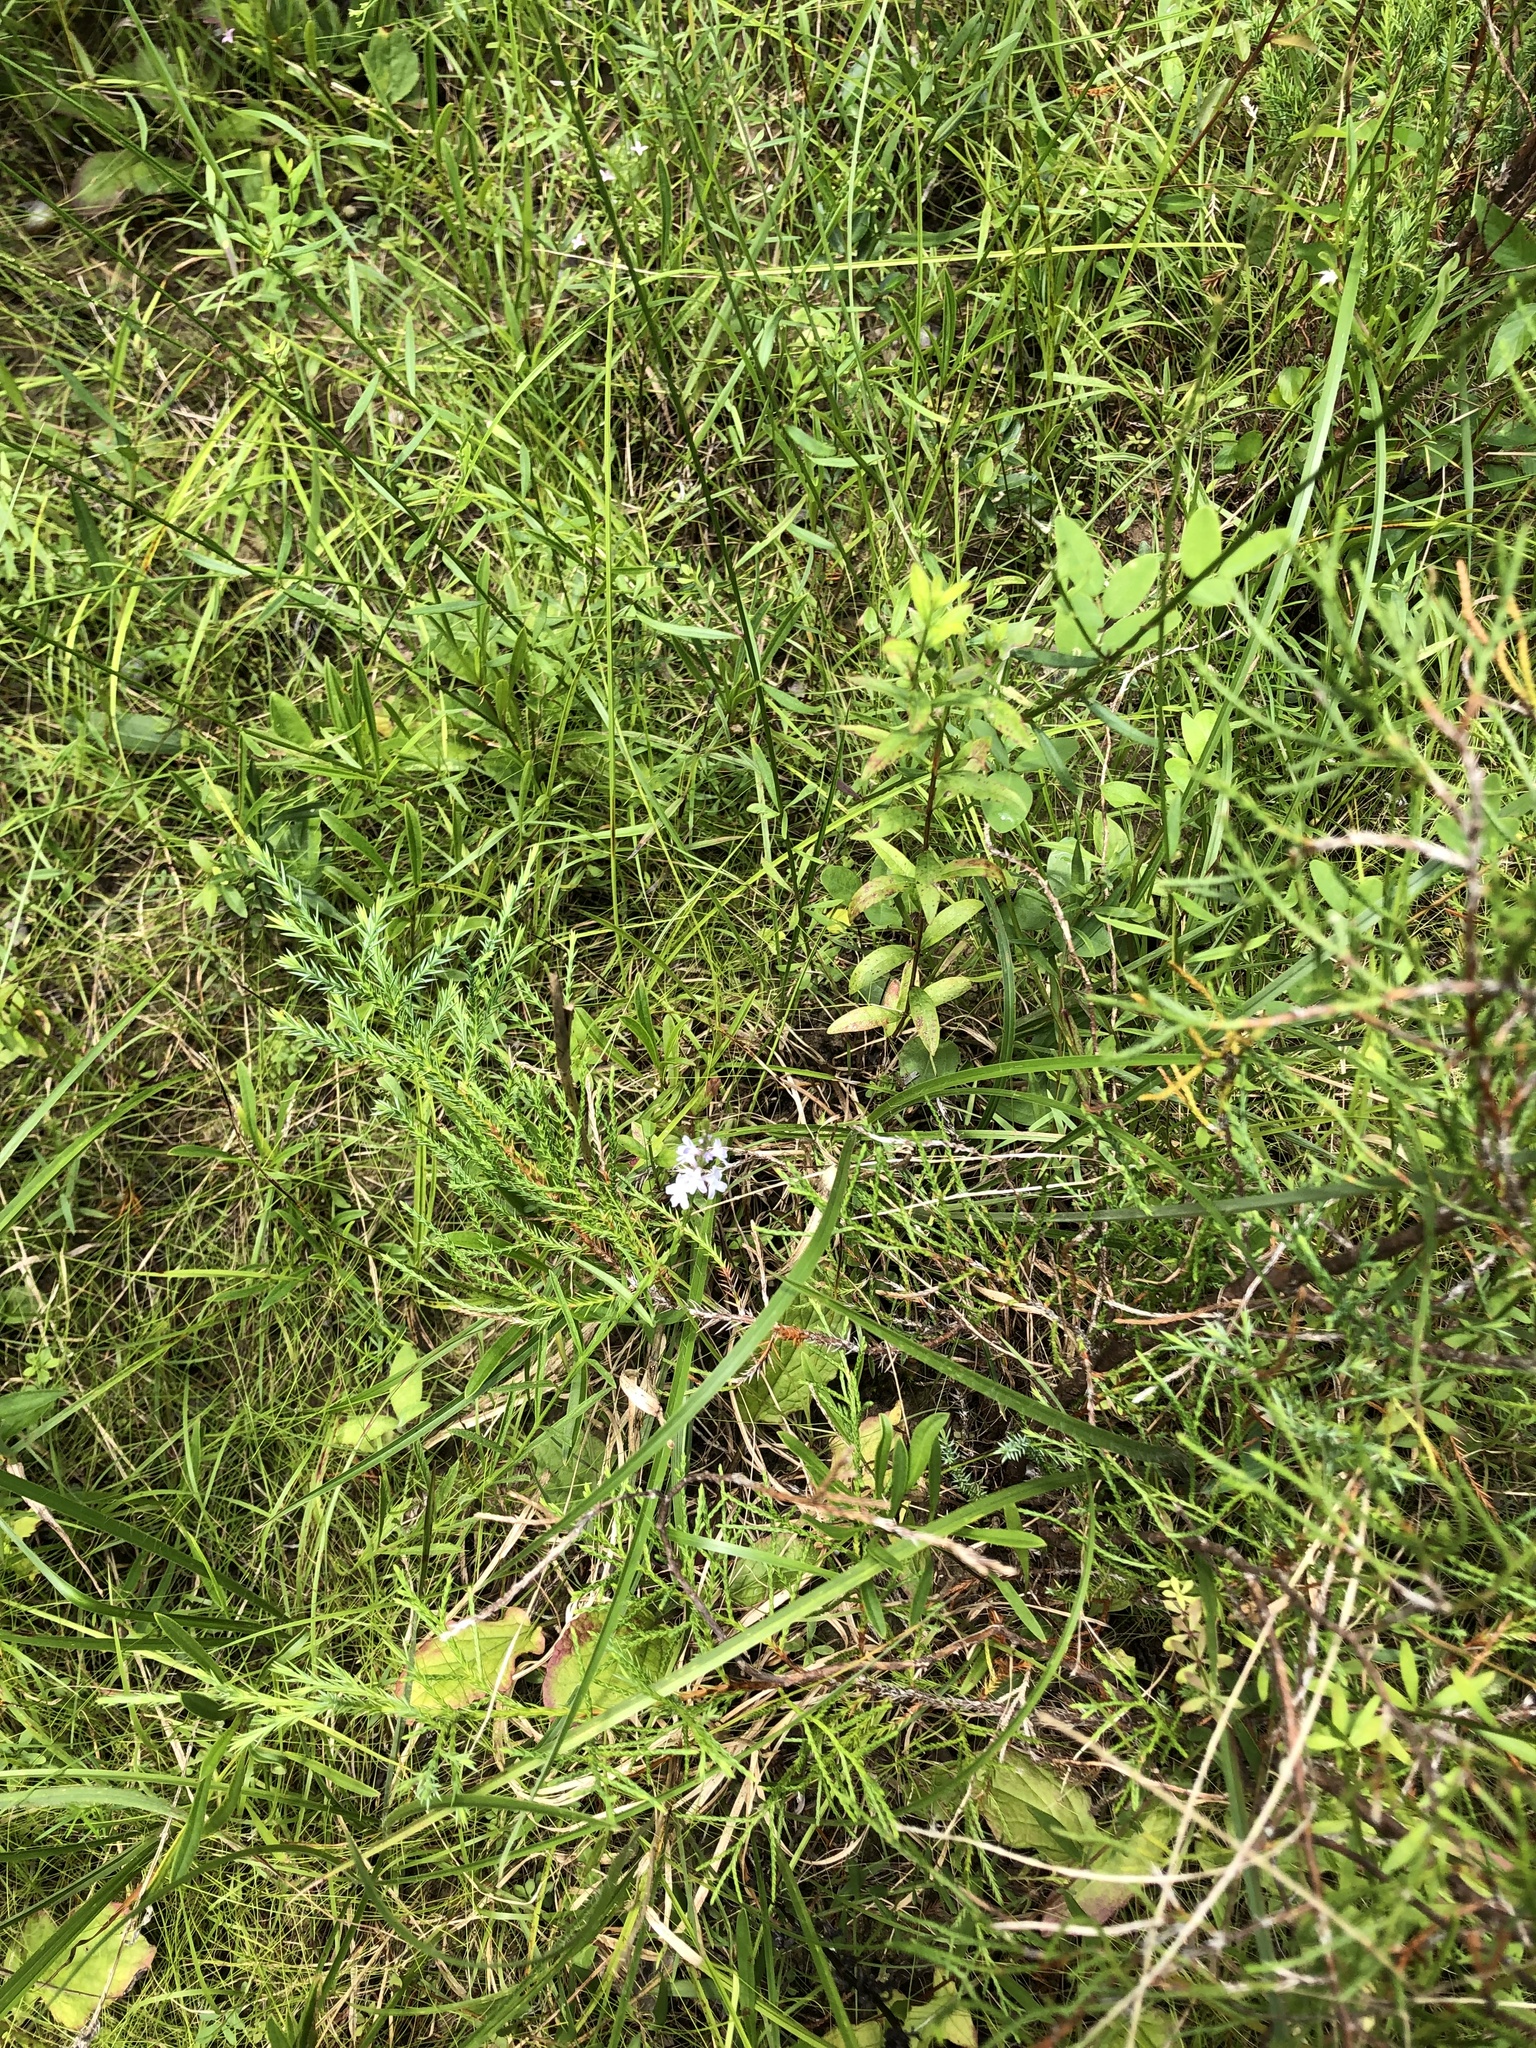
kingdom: Plantae
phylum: Tracheophyta
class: Magnoliopsida
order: Lamiales
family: Verbenaceae
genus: Verbena
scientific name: Verbena simplex
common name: Narrow-leaf vervain
